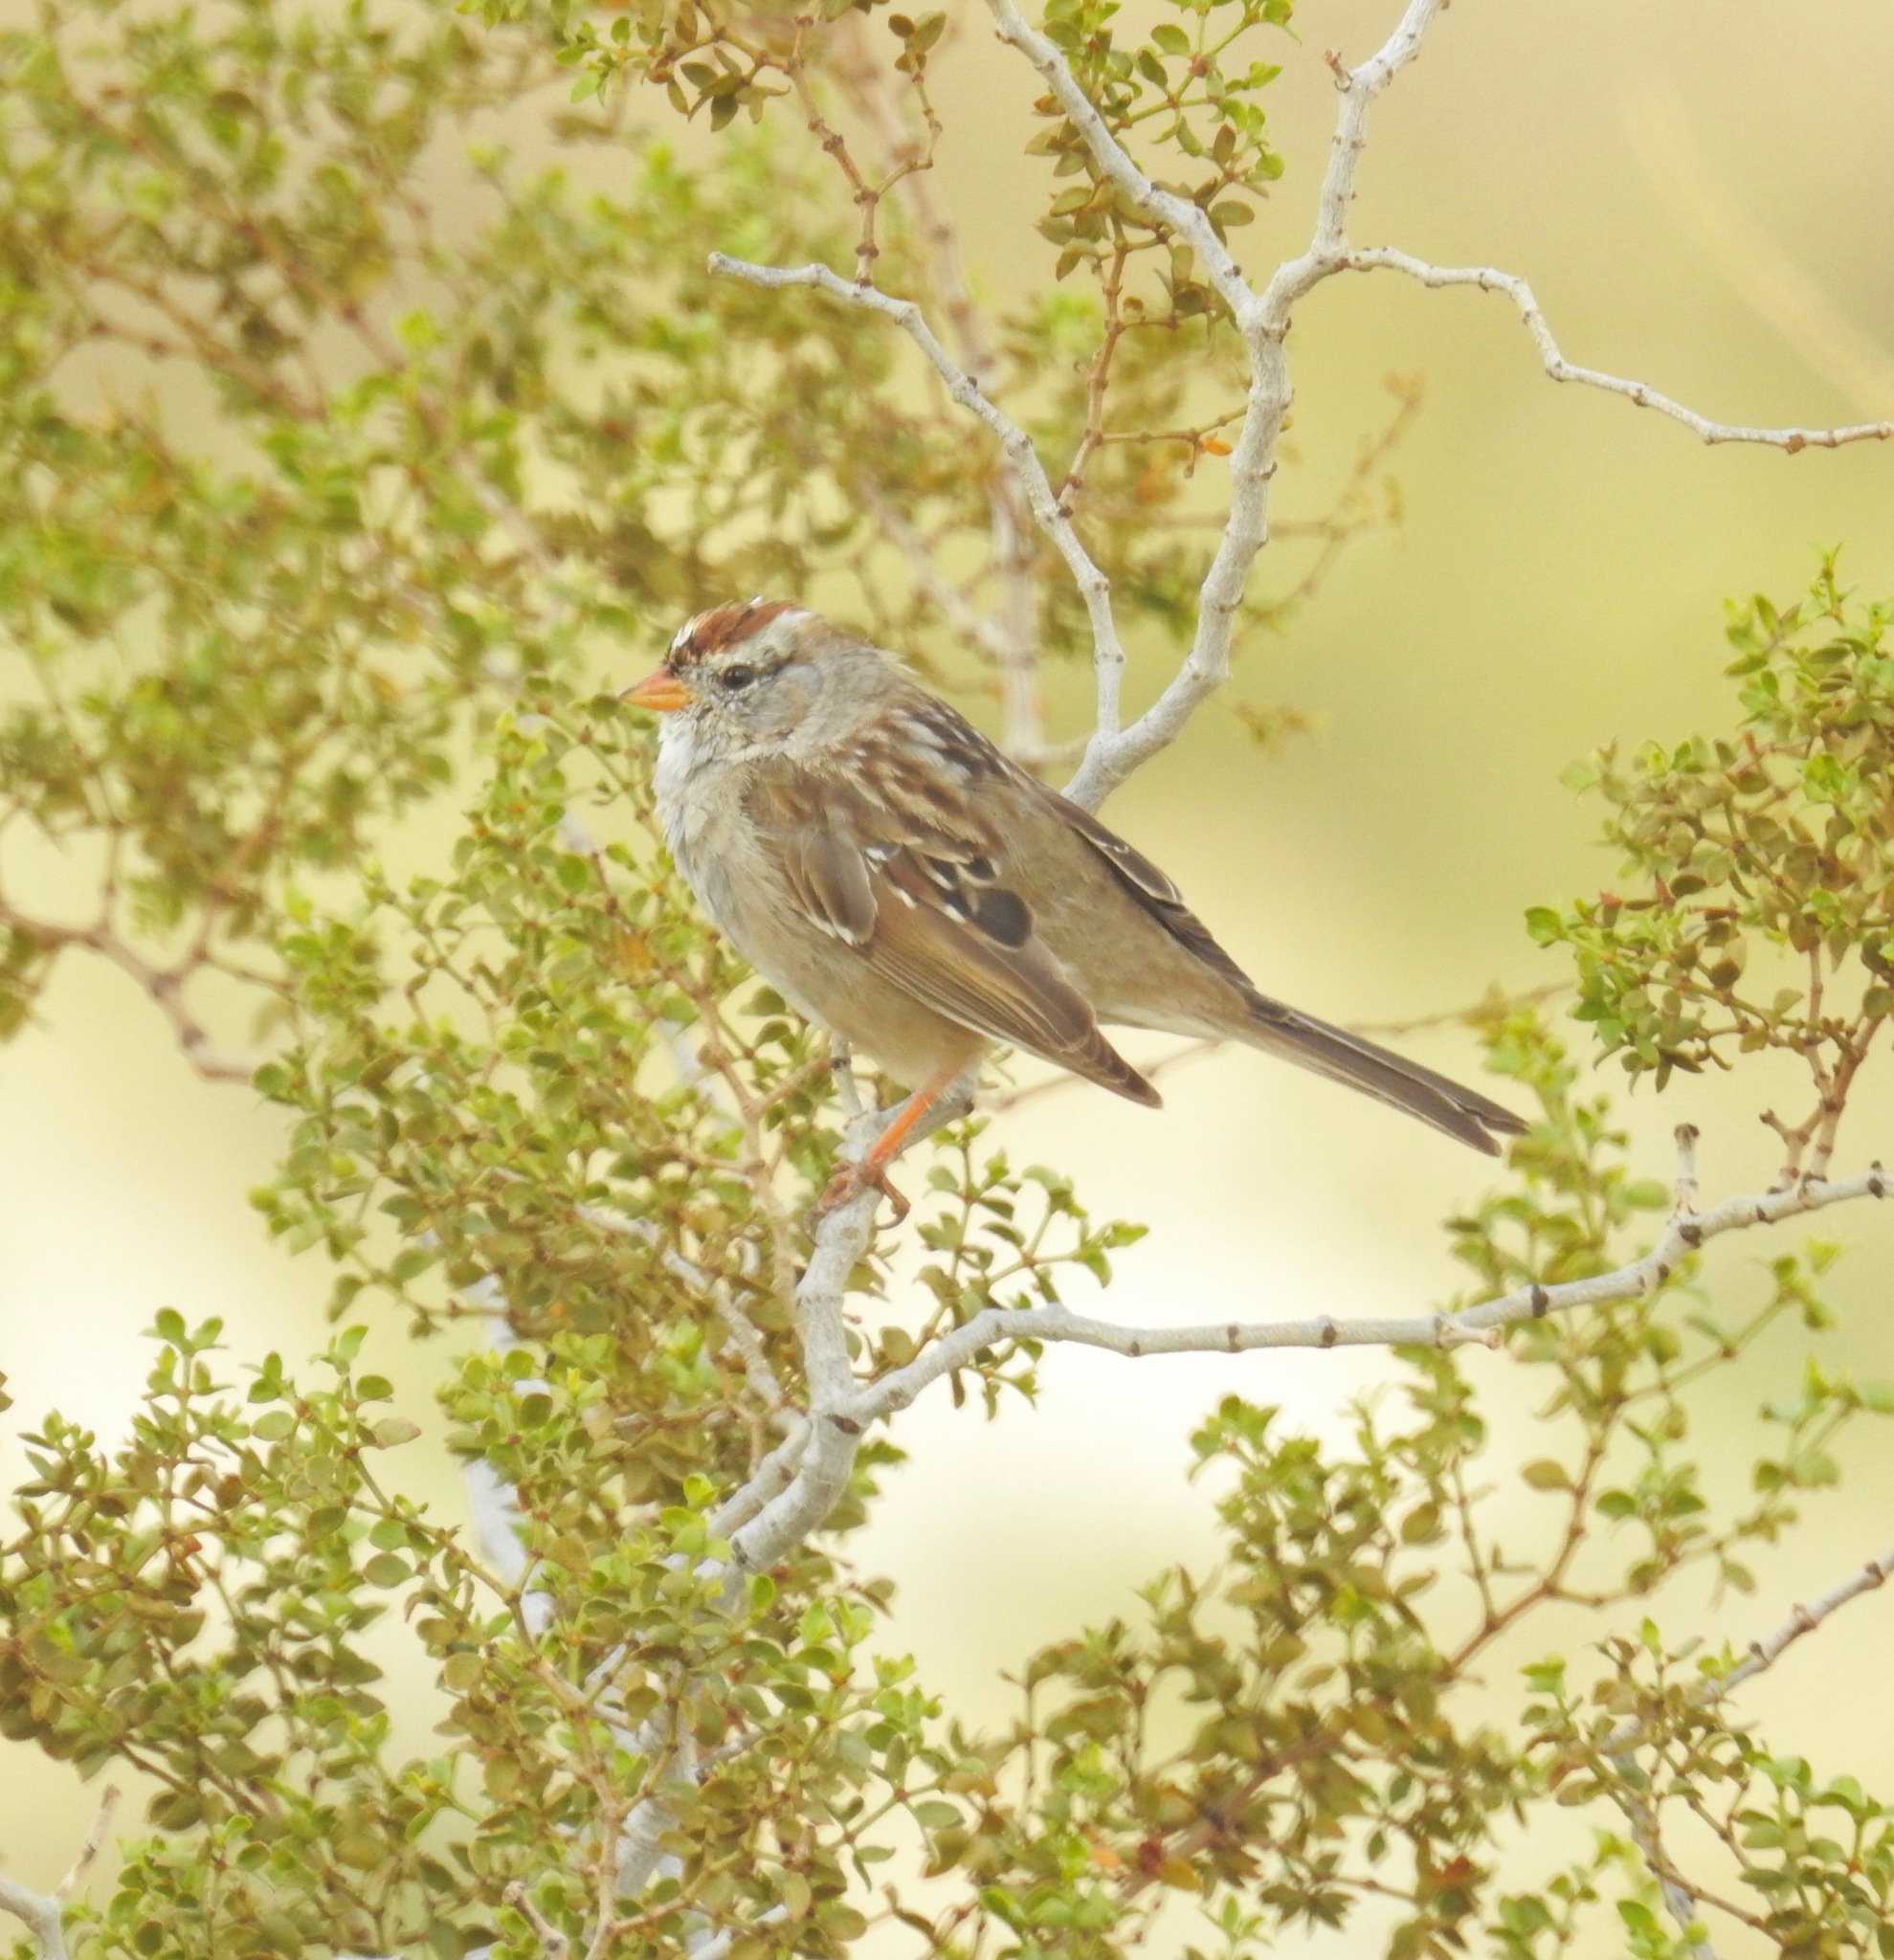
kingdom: Animalia
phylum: Chordata
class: Aves
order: Passeriformes
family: Passerellidae
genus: Zonotrichia
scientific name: Zonotrichia leucophrys
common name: White-crowned sparrow
